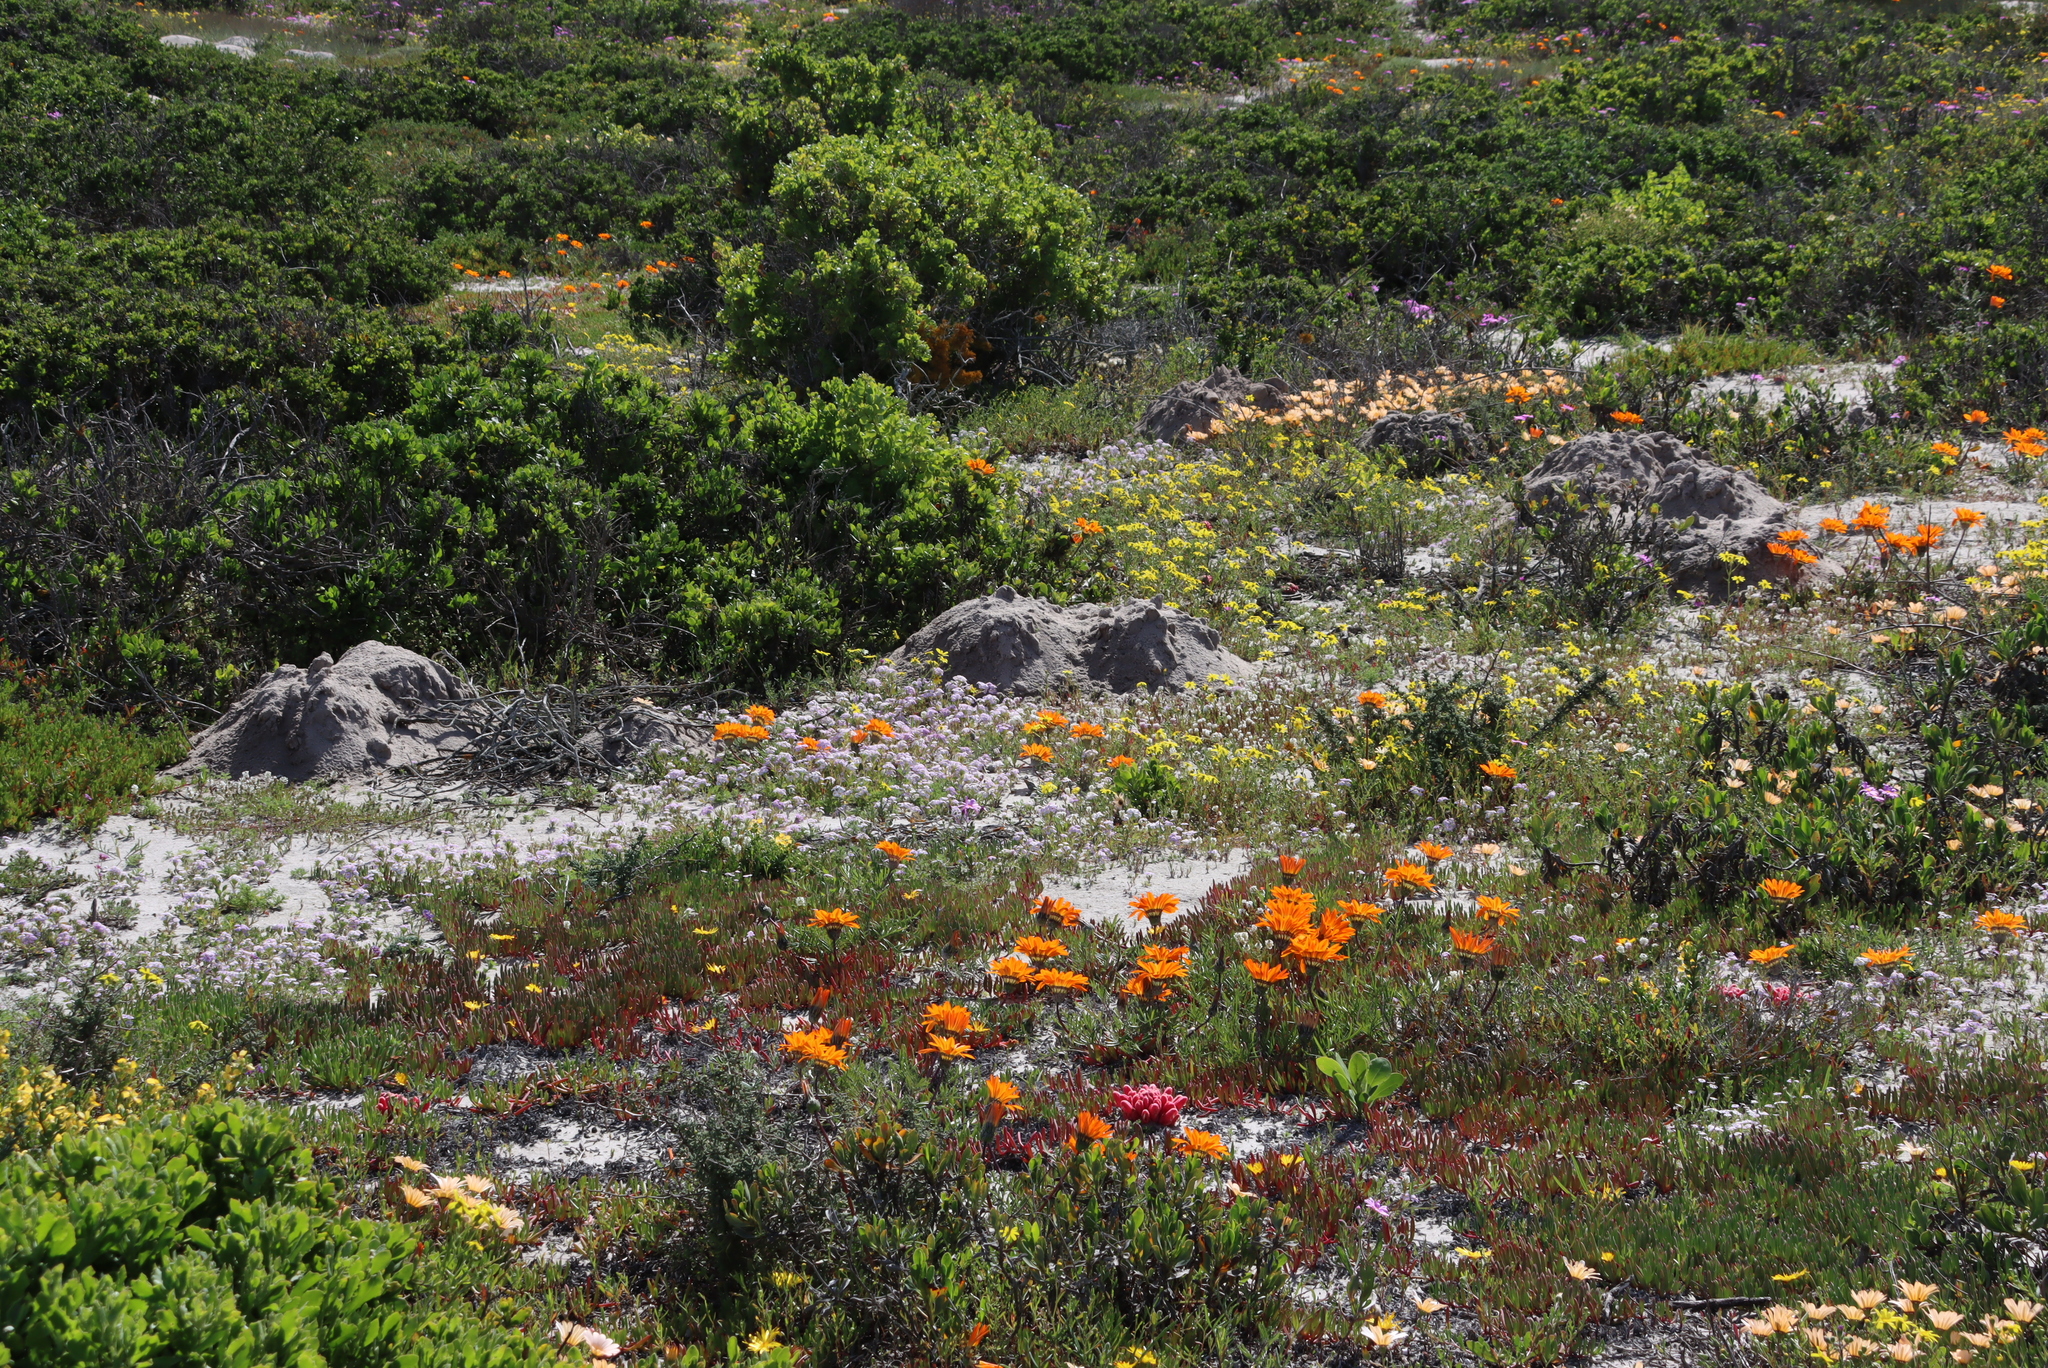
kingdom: Plantae
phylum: Tracheophyta
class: Magnoliopsida
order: Lamiales
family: Scrophulariaceae
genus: Zaluzianskya
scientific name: Zaluzianskya villosa
